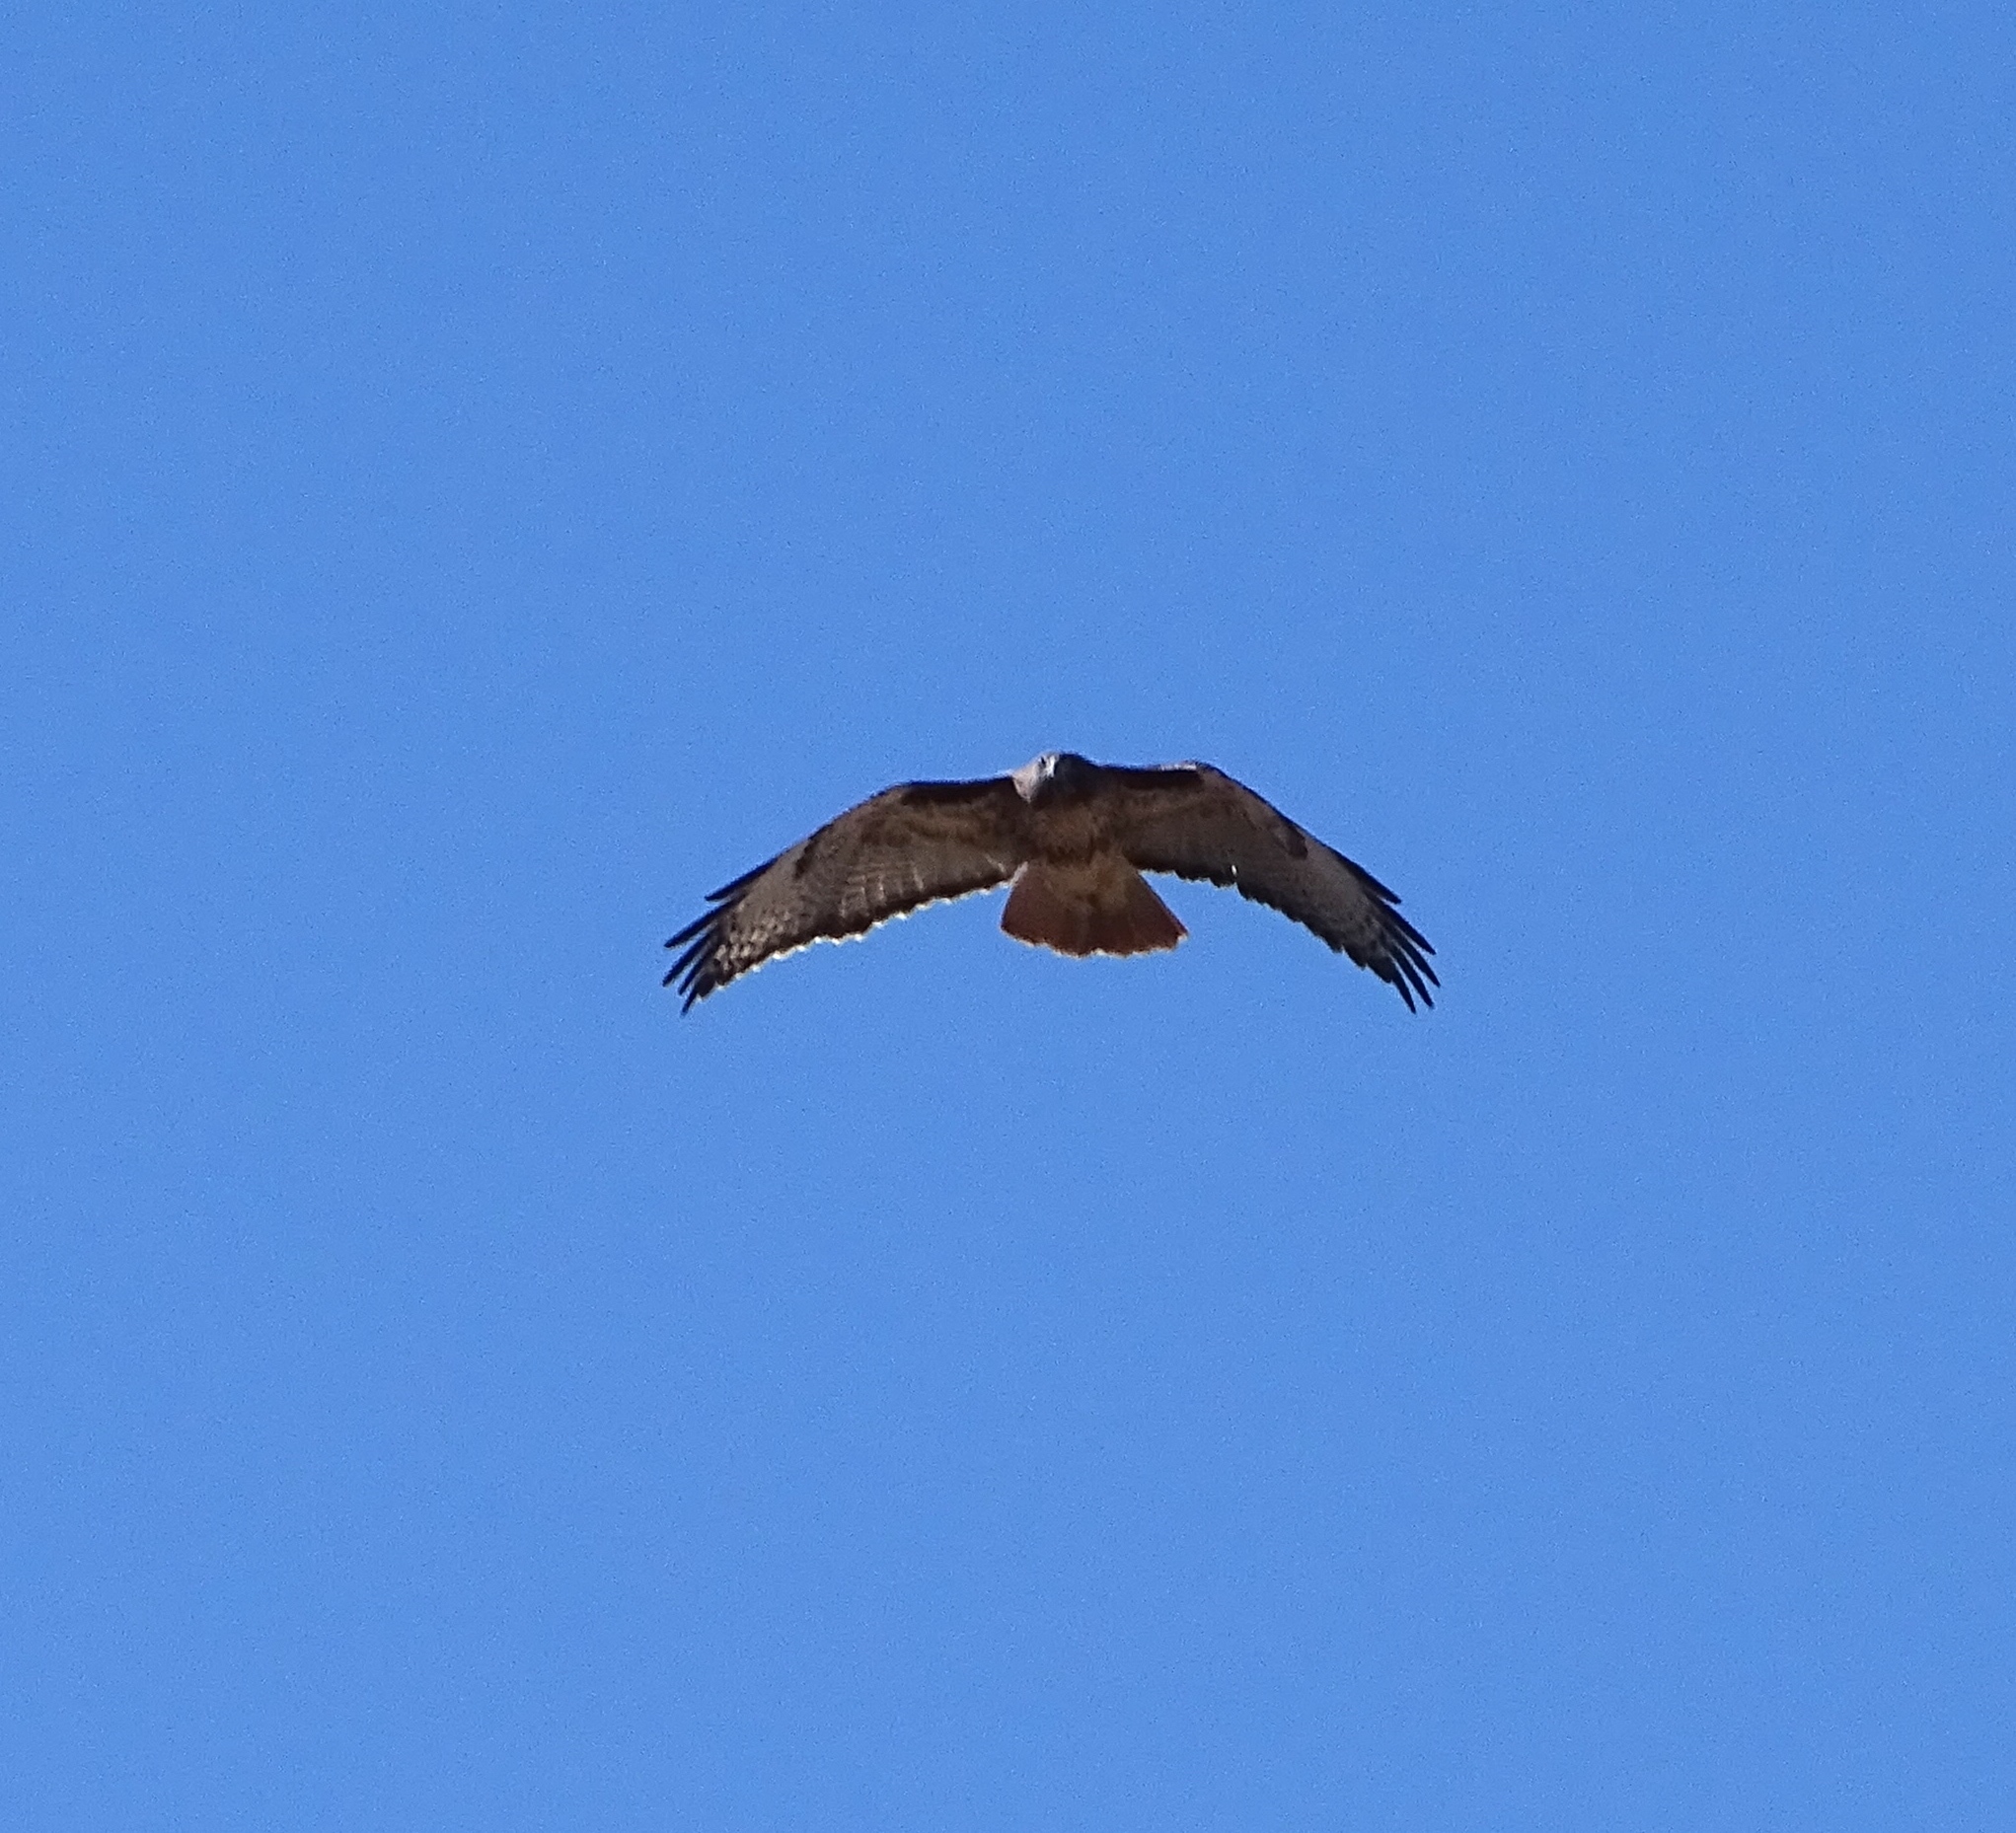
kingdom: Animalia
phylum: Chordata
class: Aves
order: Accipitriformes
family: Accipitridae
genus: Buteo
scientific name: Buteo jamaicensis
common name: Red-tailed hawk
